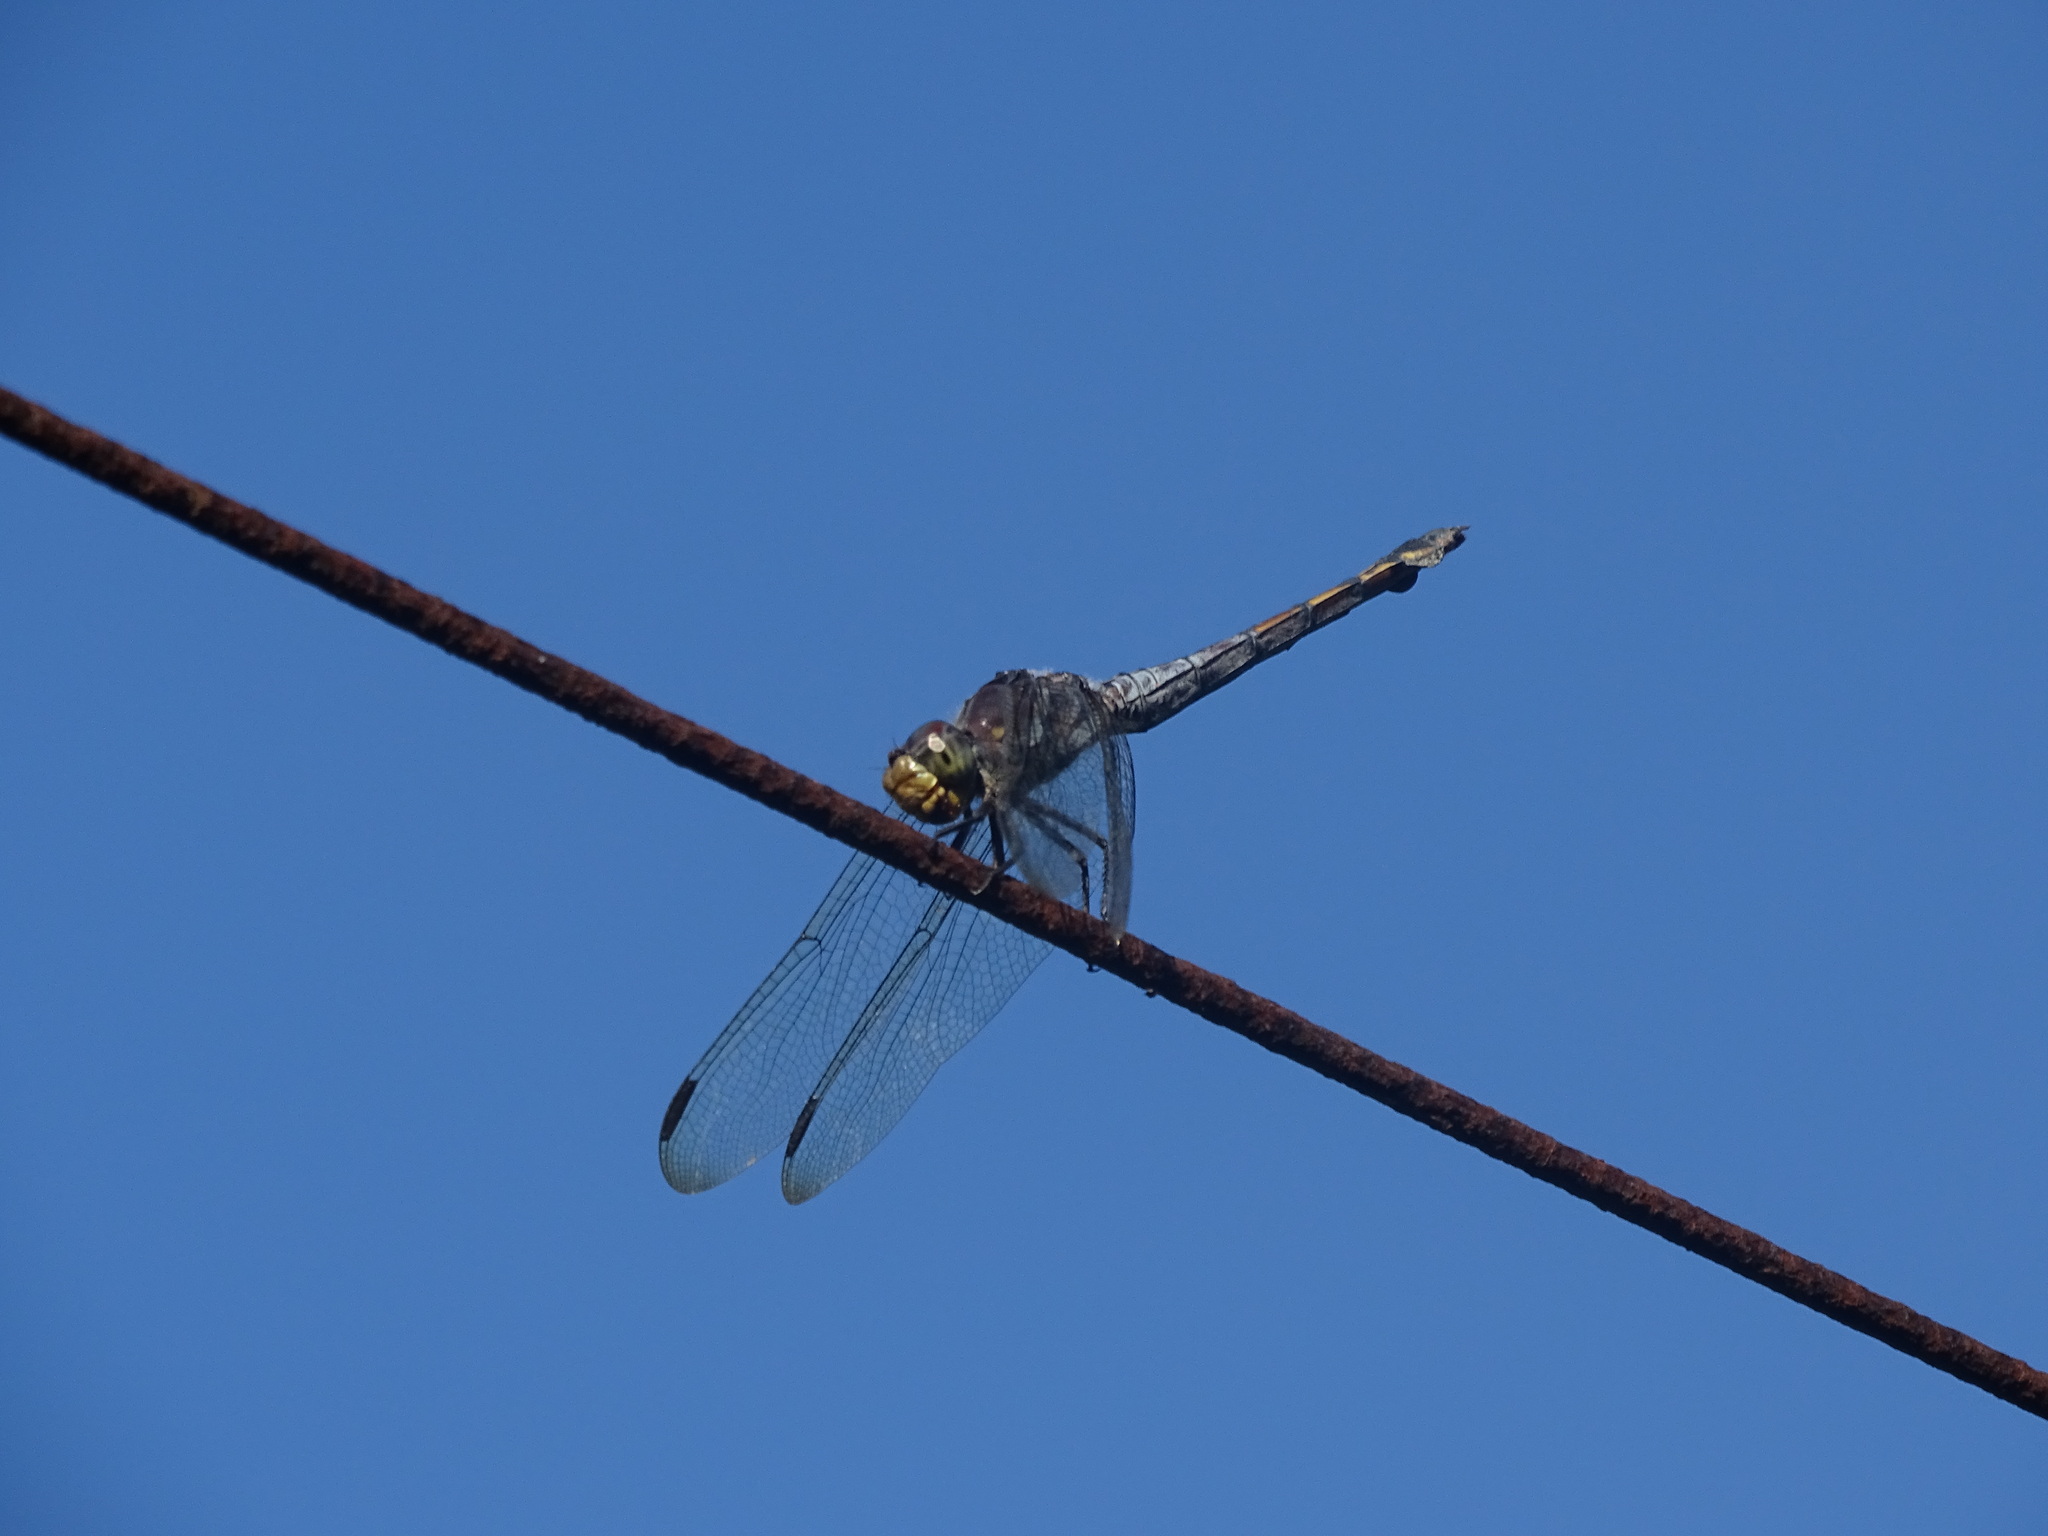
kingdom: Animalia
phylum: Arthropoda
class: Insecta
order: Odonata
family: Libellulidae
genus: Potamarcha
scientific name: Potamarcha congener
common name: Blue chaser
